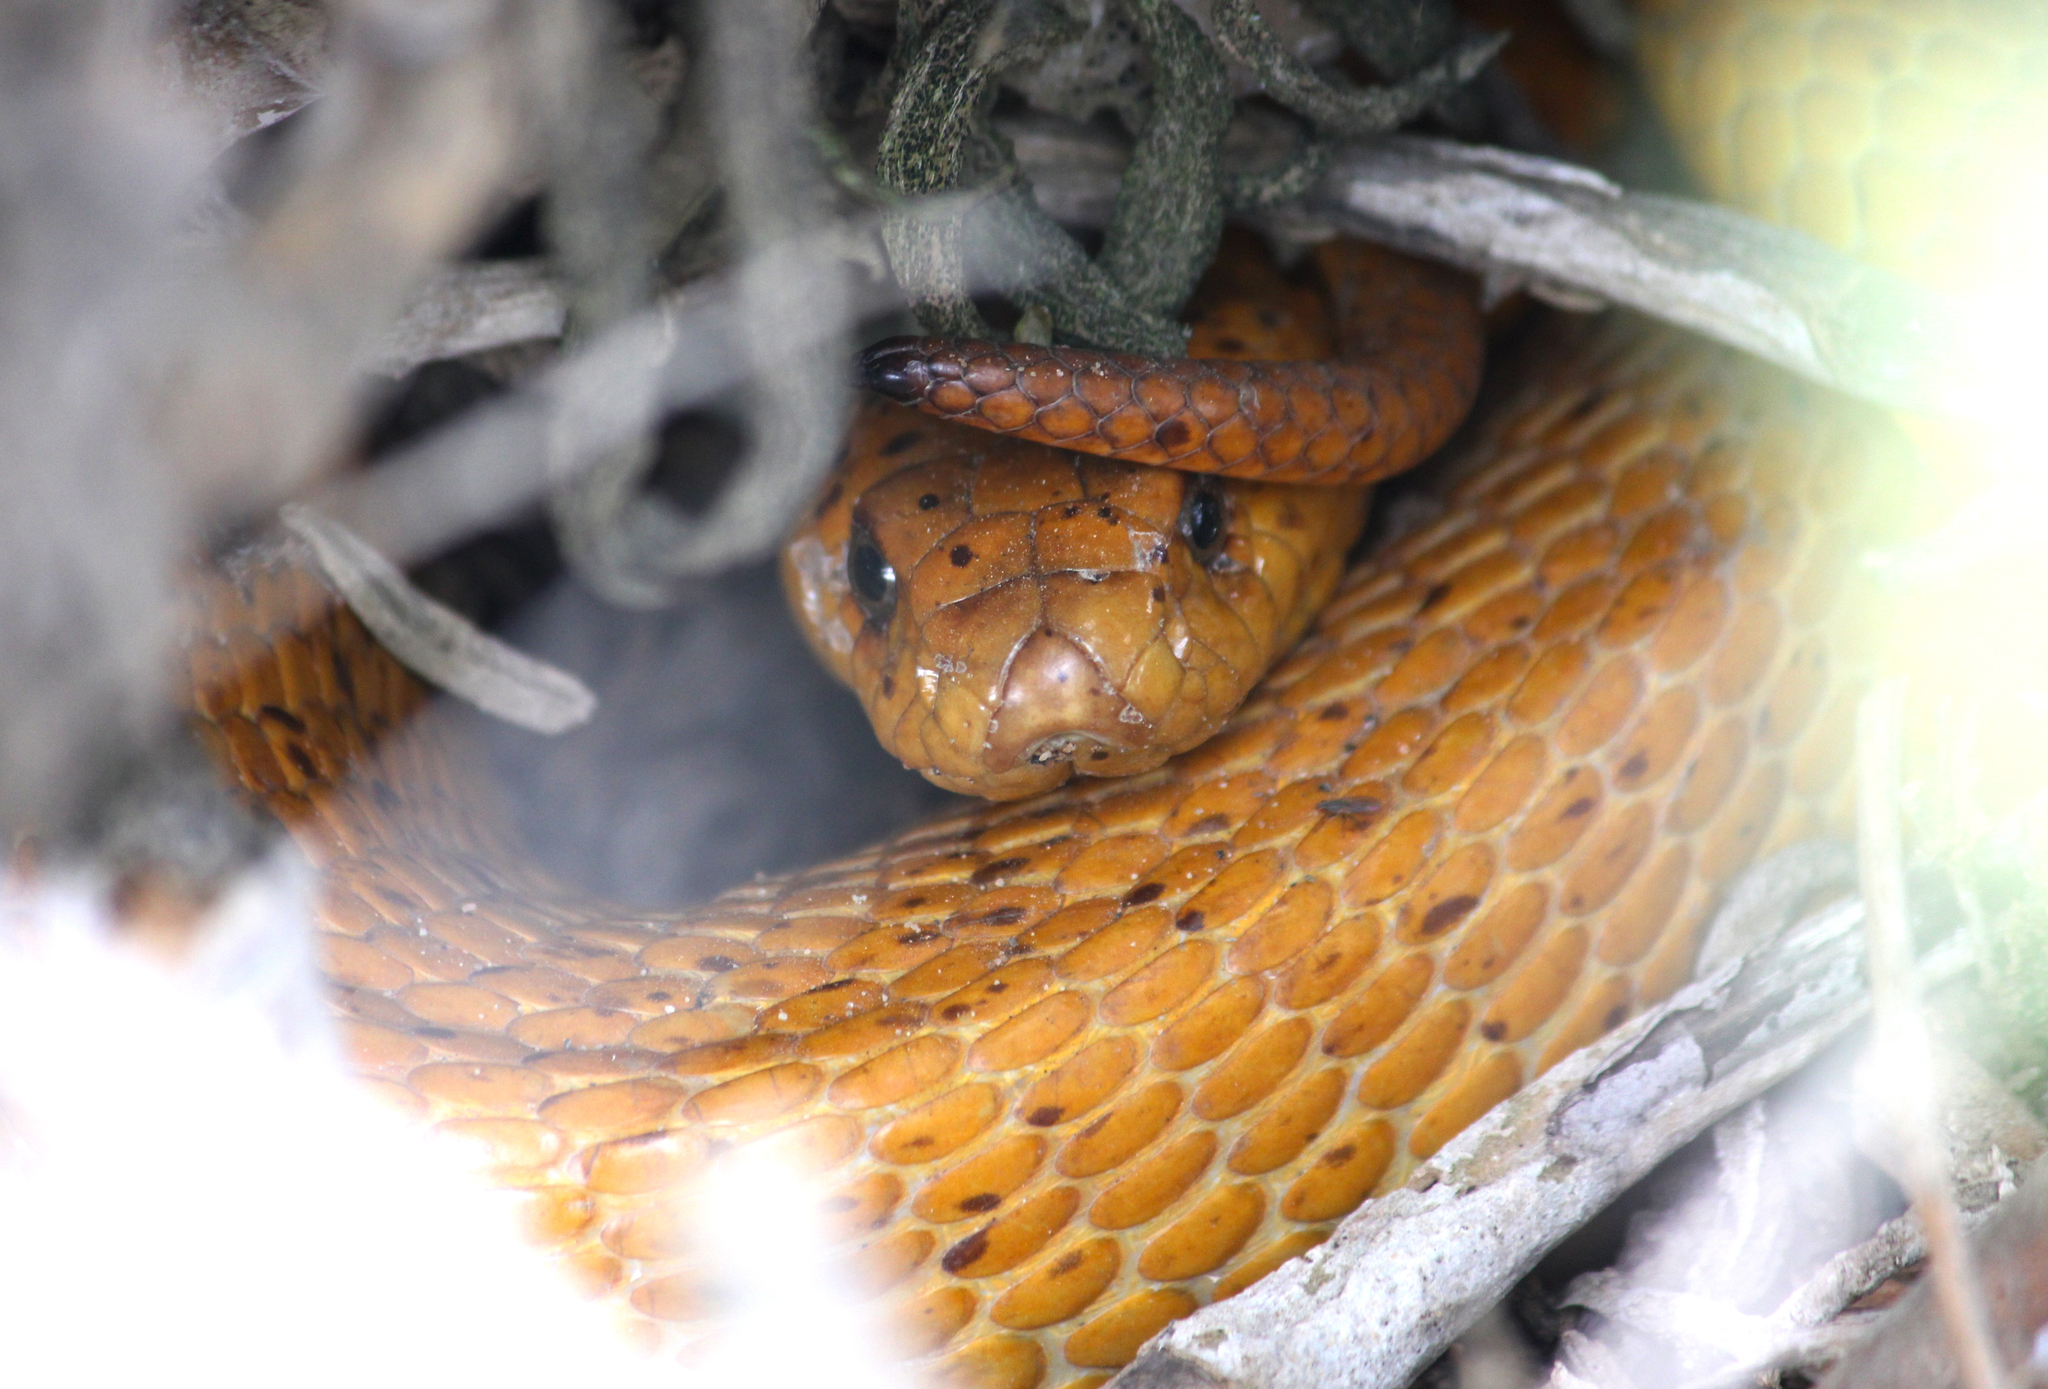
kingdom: Animalia
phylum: Chordata
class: Squamata
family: Elapidae
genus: Naja
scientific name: Naja nivea
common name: Cape cobra
